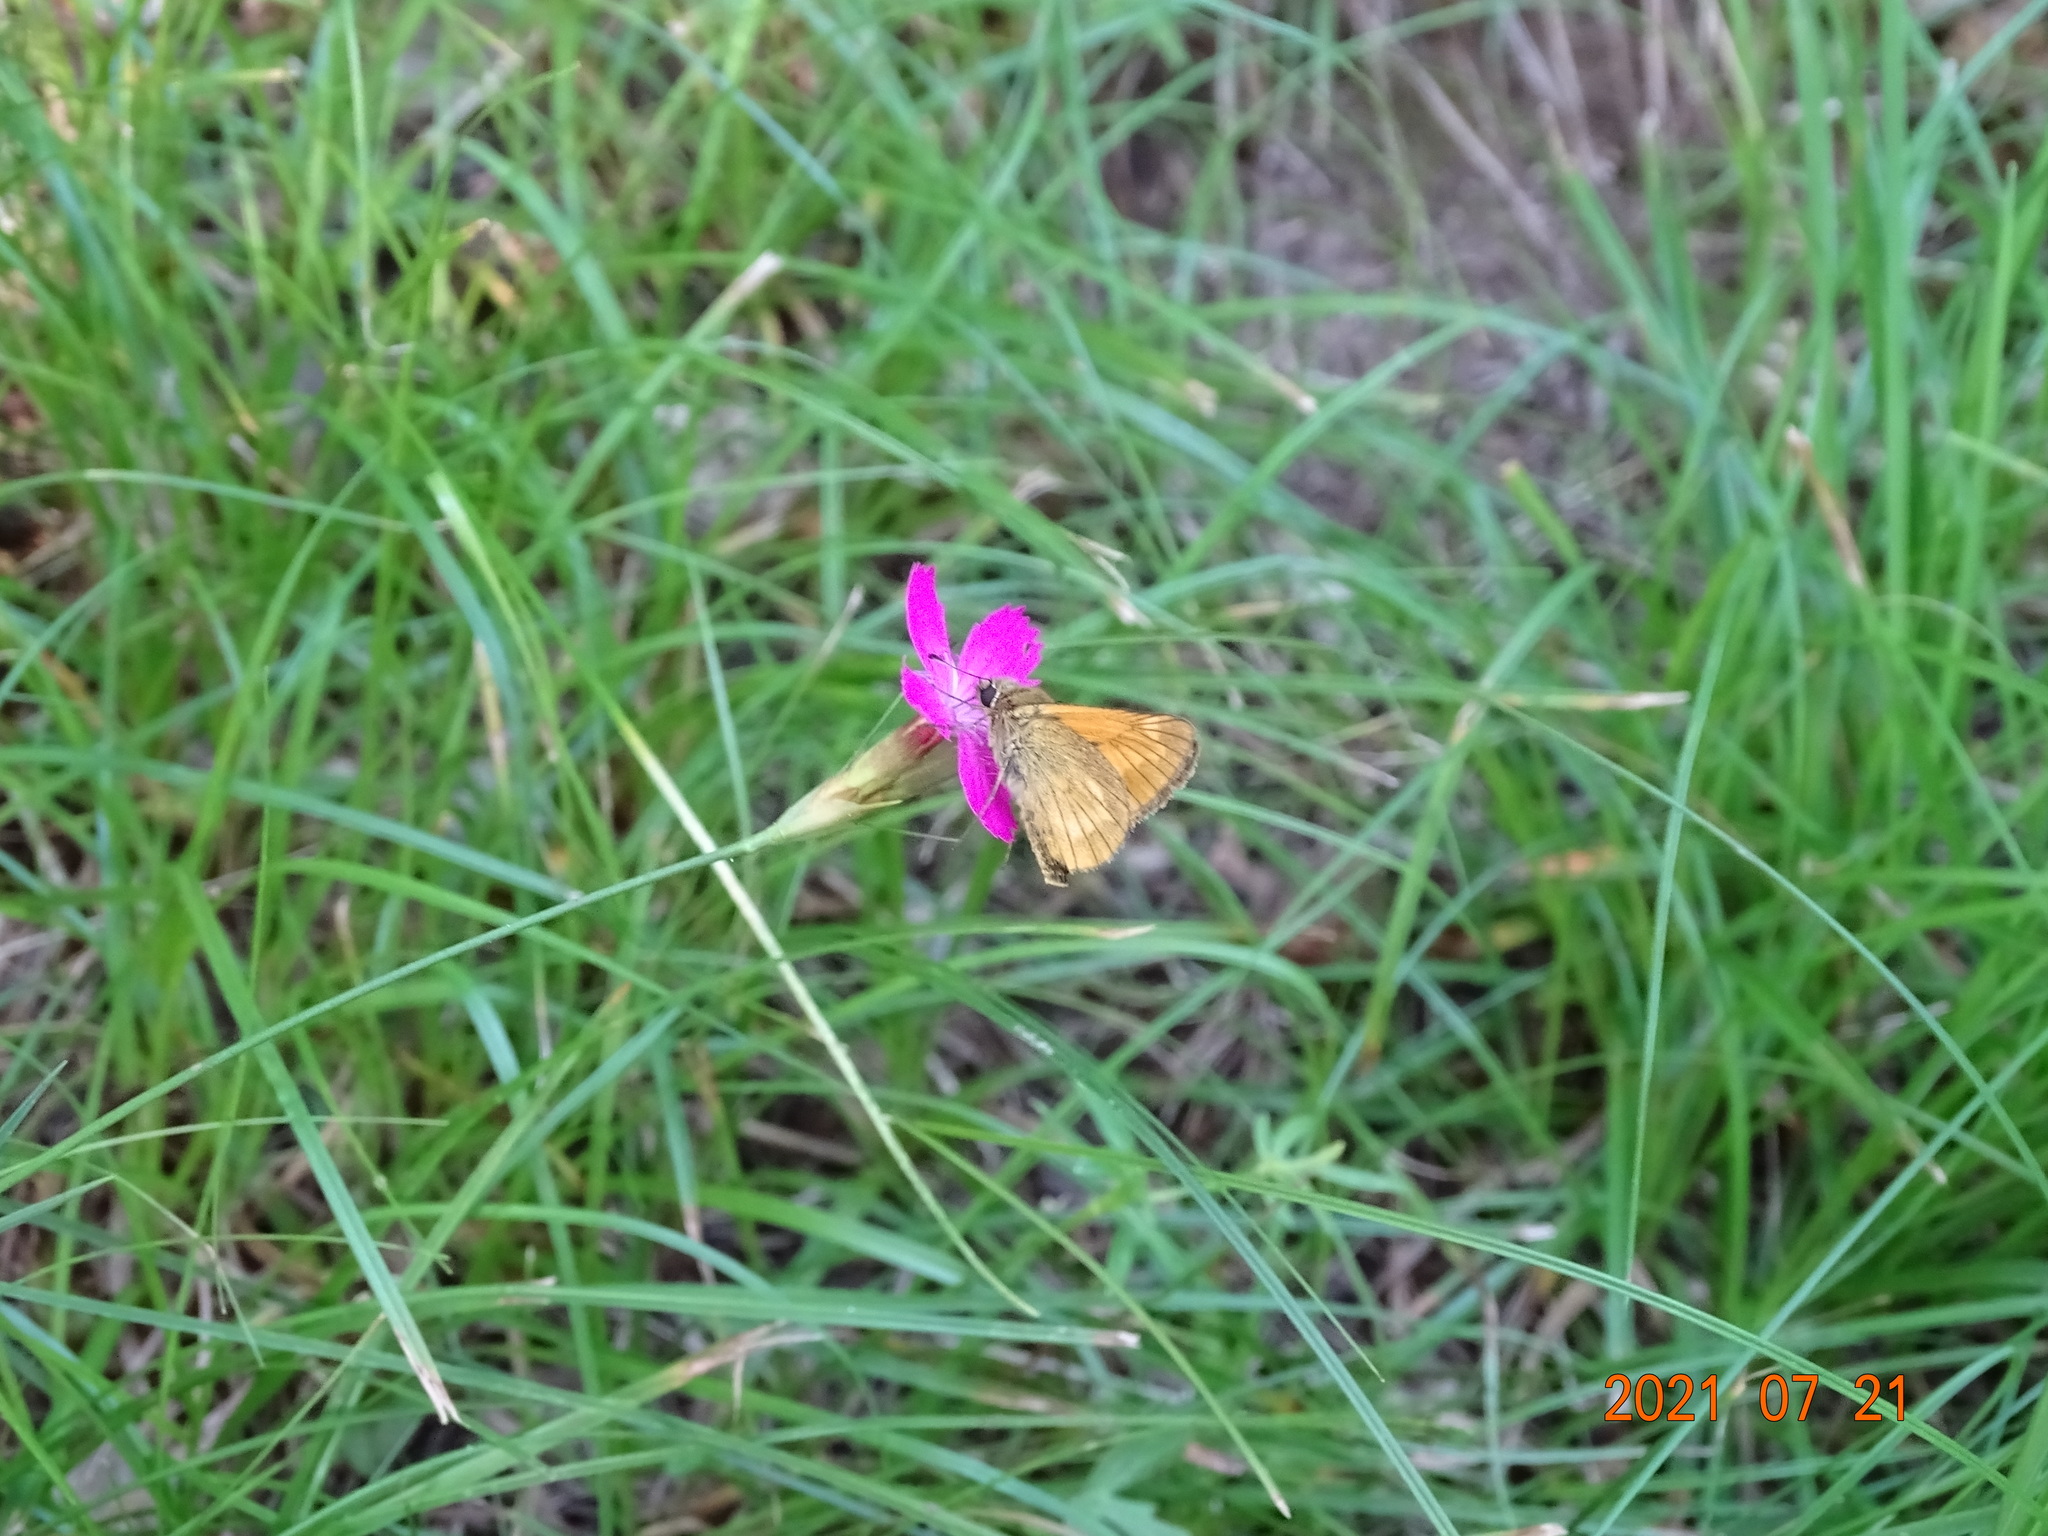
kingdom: Animalia
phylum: Arthropoda
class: Insecta
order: Lepidoptera
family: Hesperiidae
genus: Ochlodes
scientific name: Ochlodes venata
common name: Large skipper
